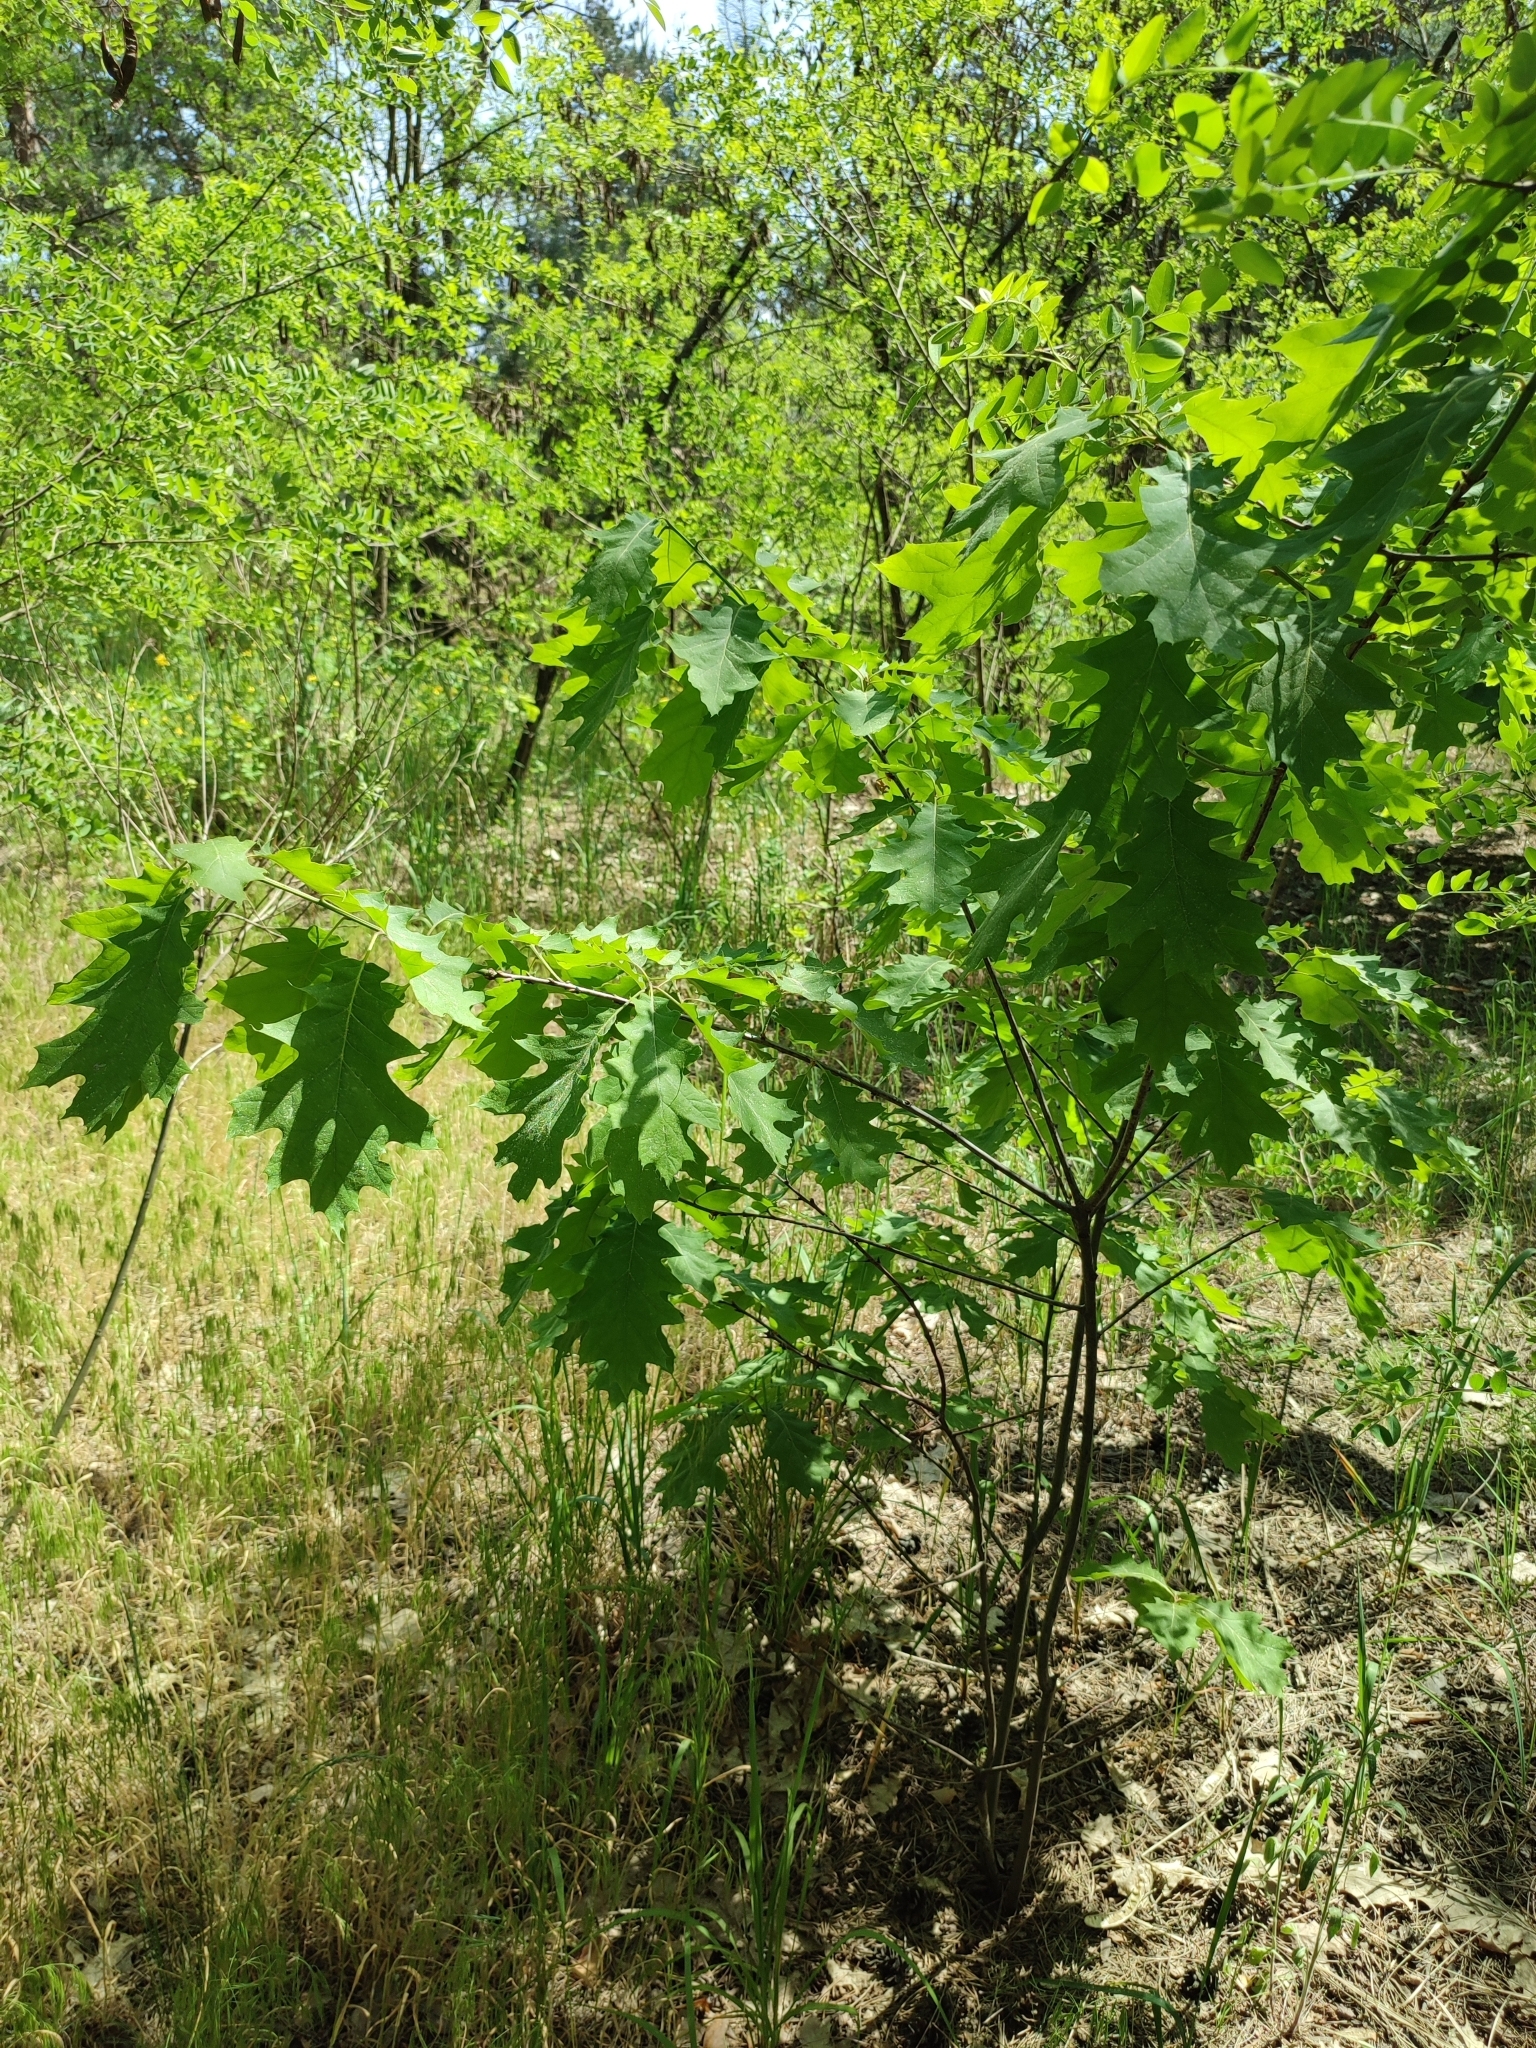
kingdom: Plantae
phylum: Tracheophyta
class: Magnoliopsida
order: Fagales
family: Fagaceae
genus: Quercus
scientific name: Quercus rubra
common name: Red oak
